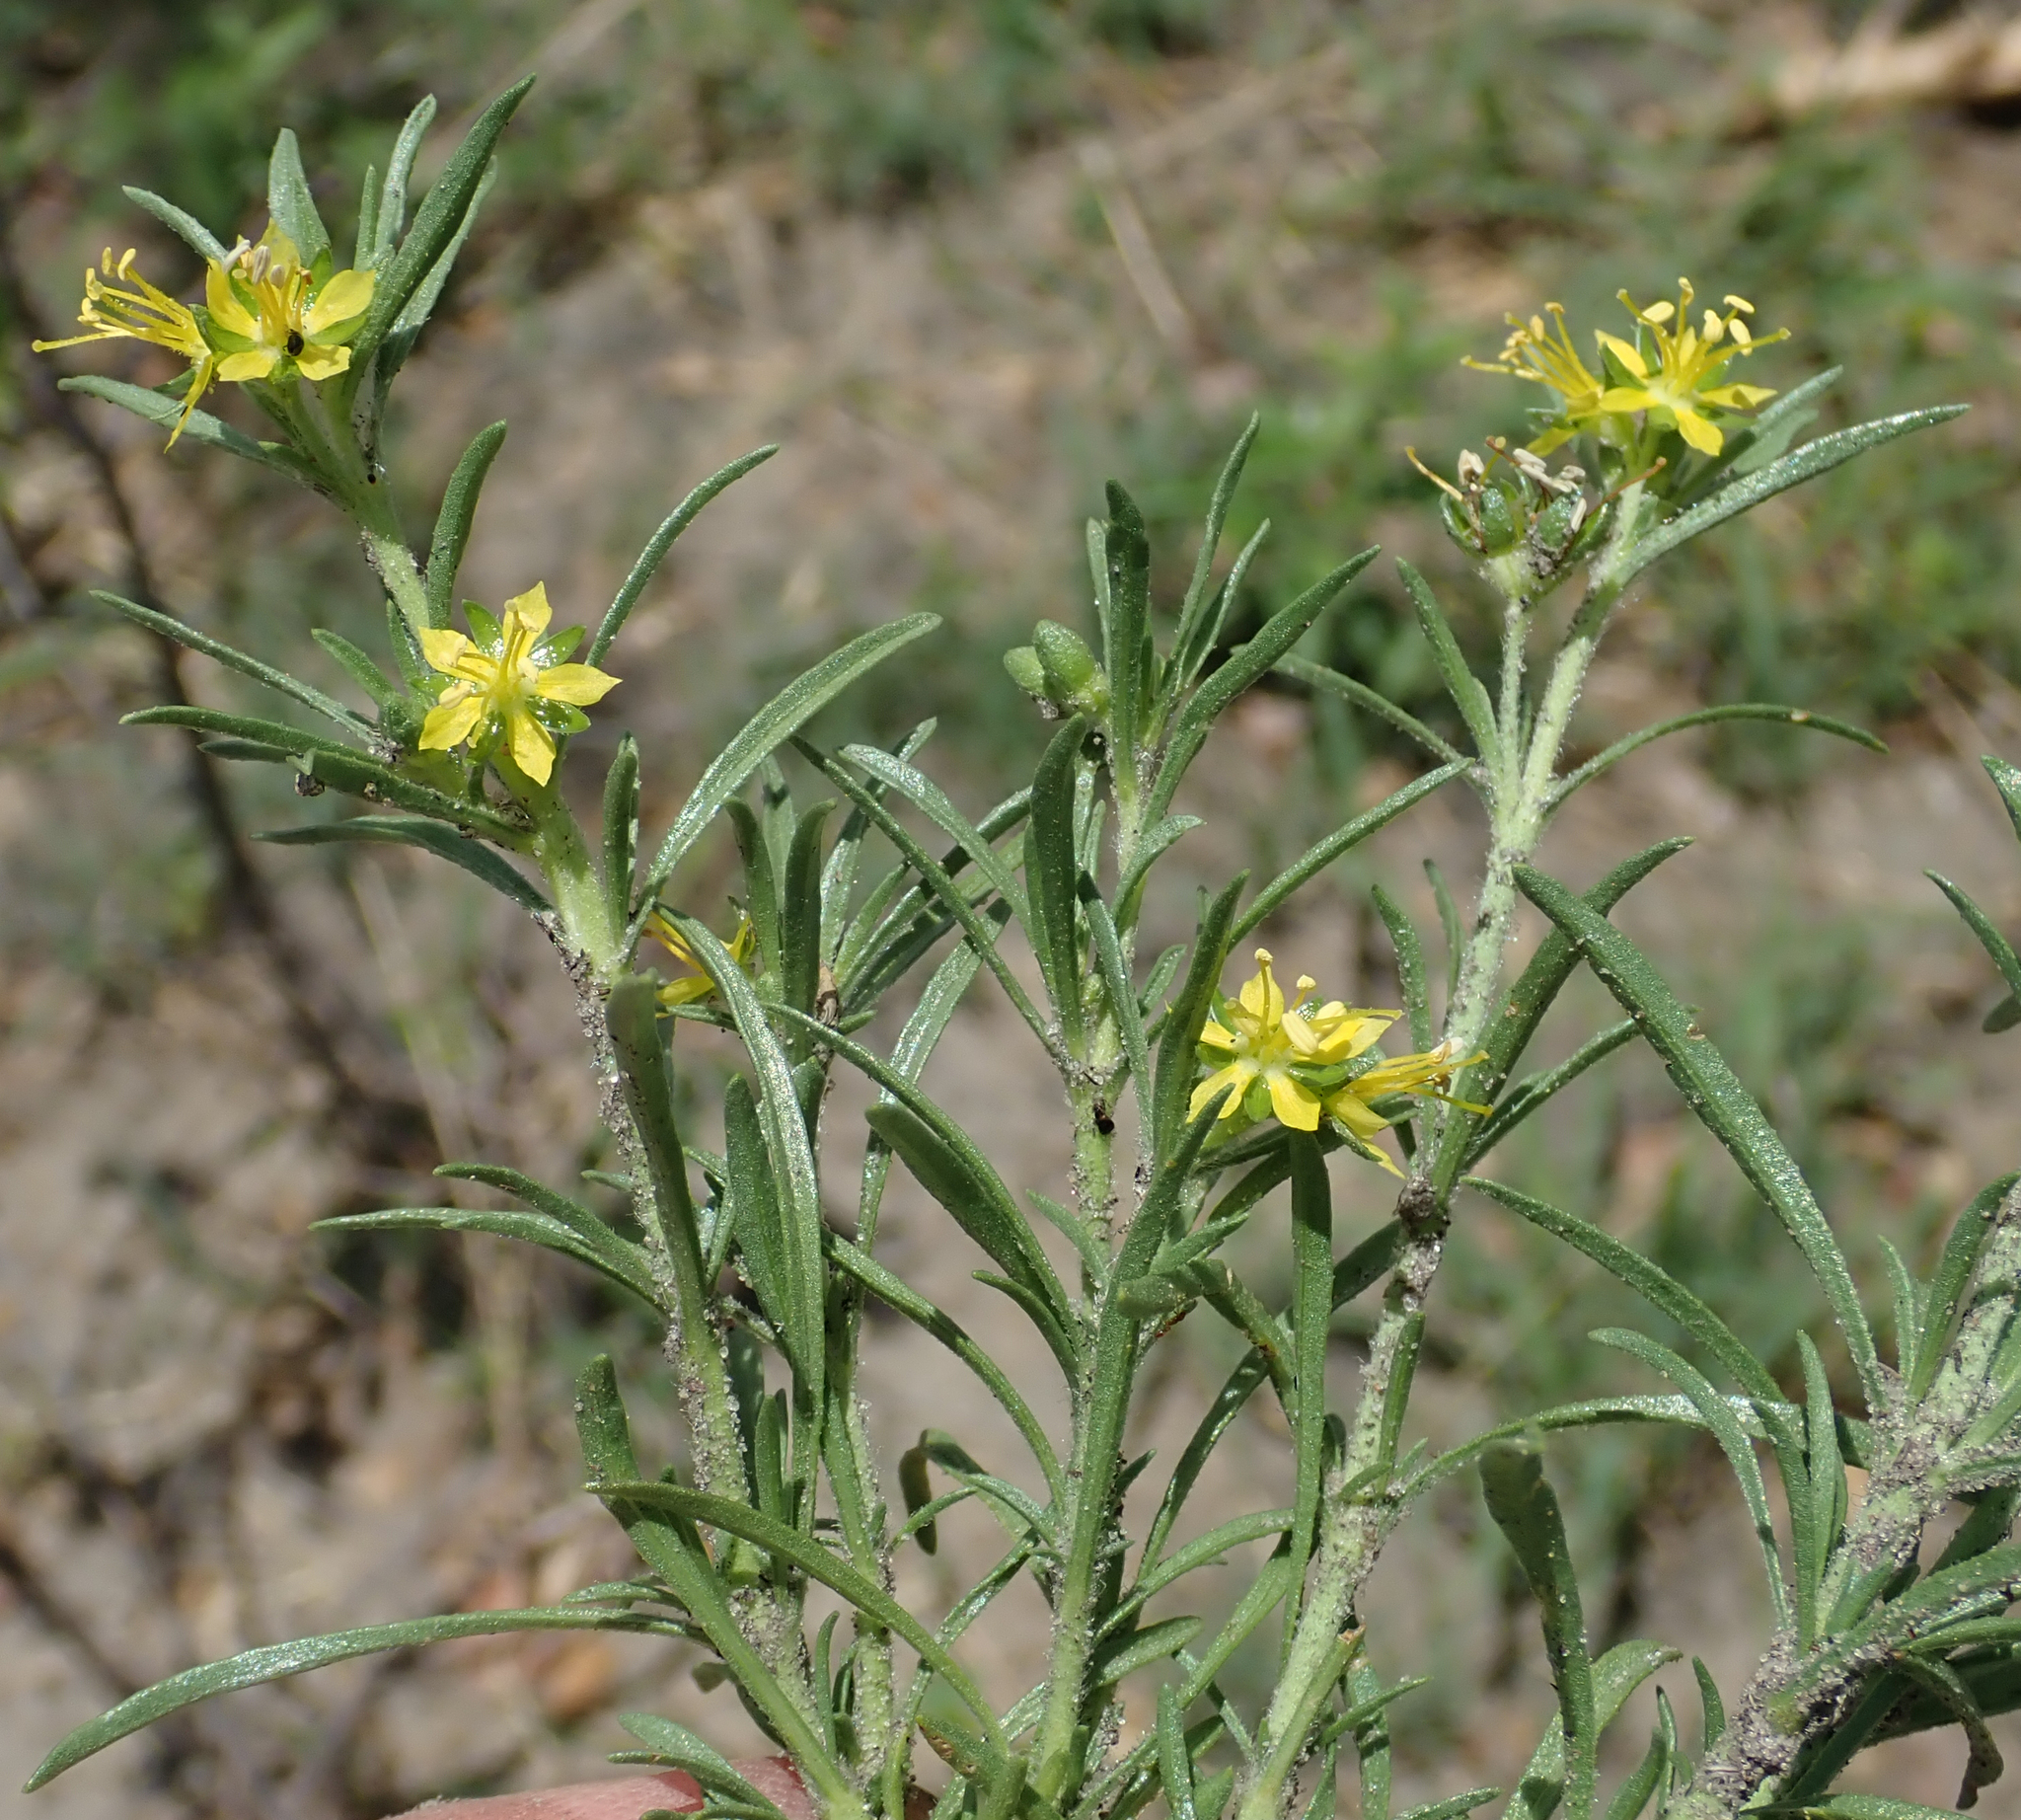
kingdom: Plantae
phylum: Tracheophyta
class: Magnoliopsida
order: Vahliales
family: Vahliaceae
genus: Vahlia
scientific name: Vahlia capensis
